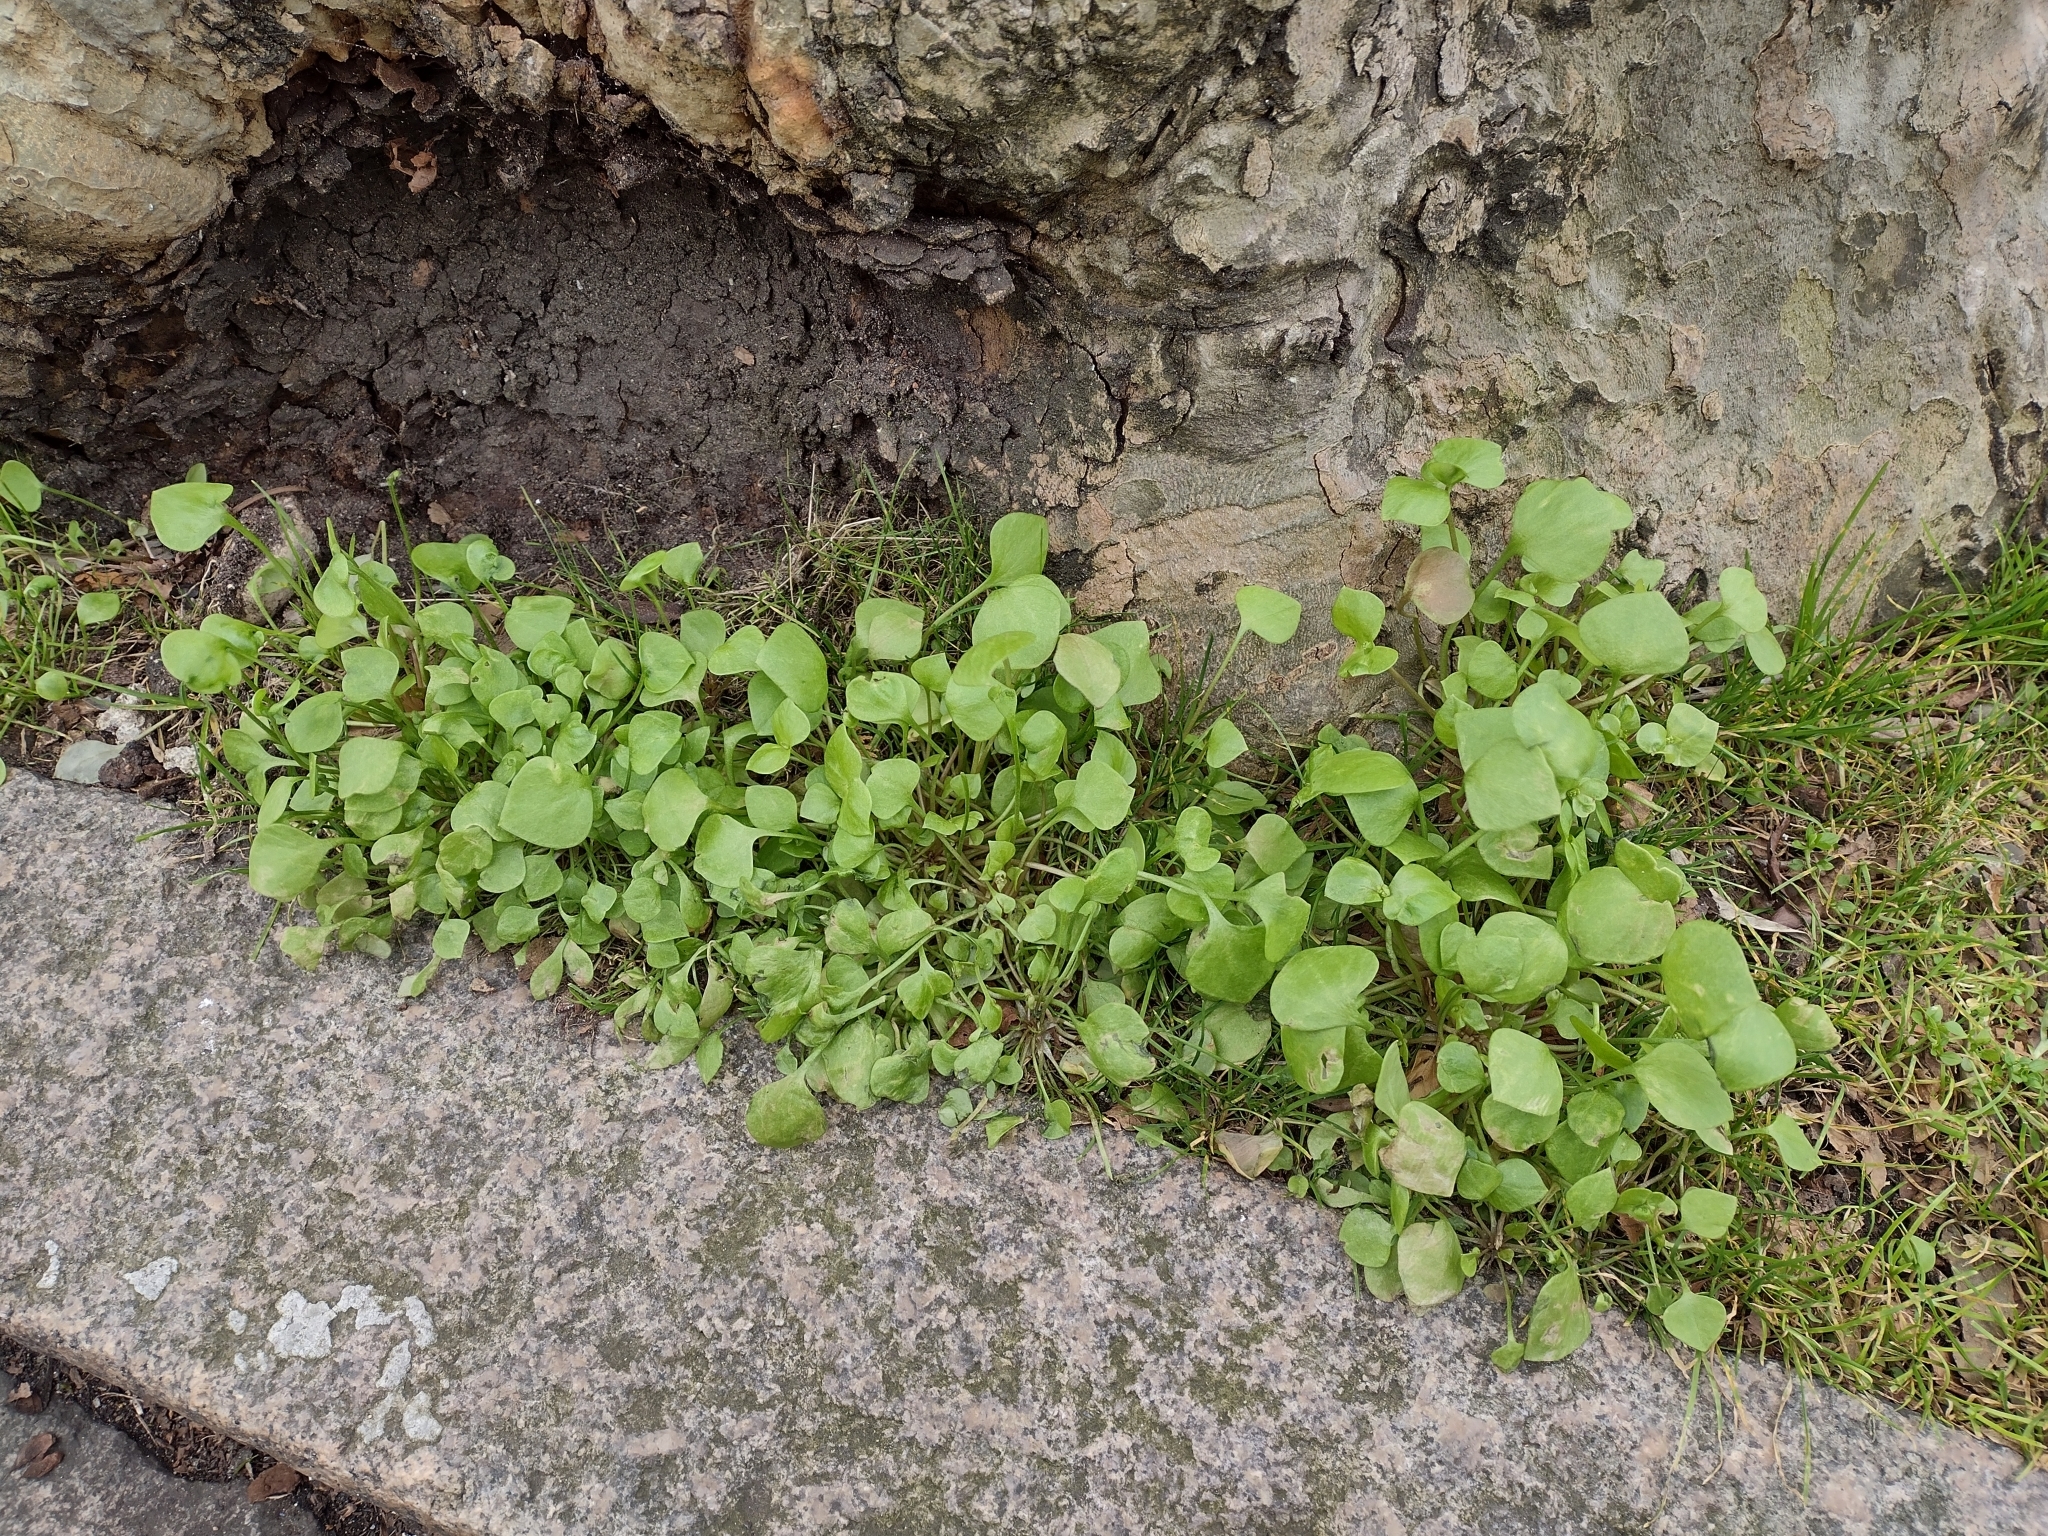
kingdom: Plantae
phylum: Tracheophyta
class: Magnoliopsida
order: Caryophyllales
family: Montiaceae
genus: Claytonia
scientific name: Claytonia perfoliata
